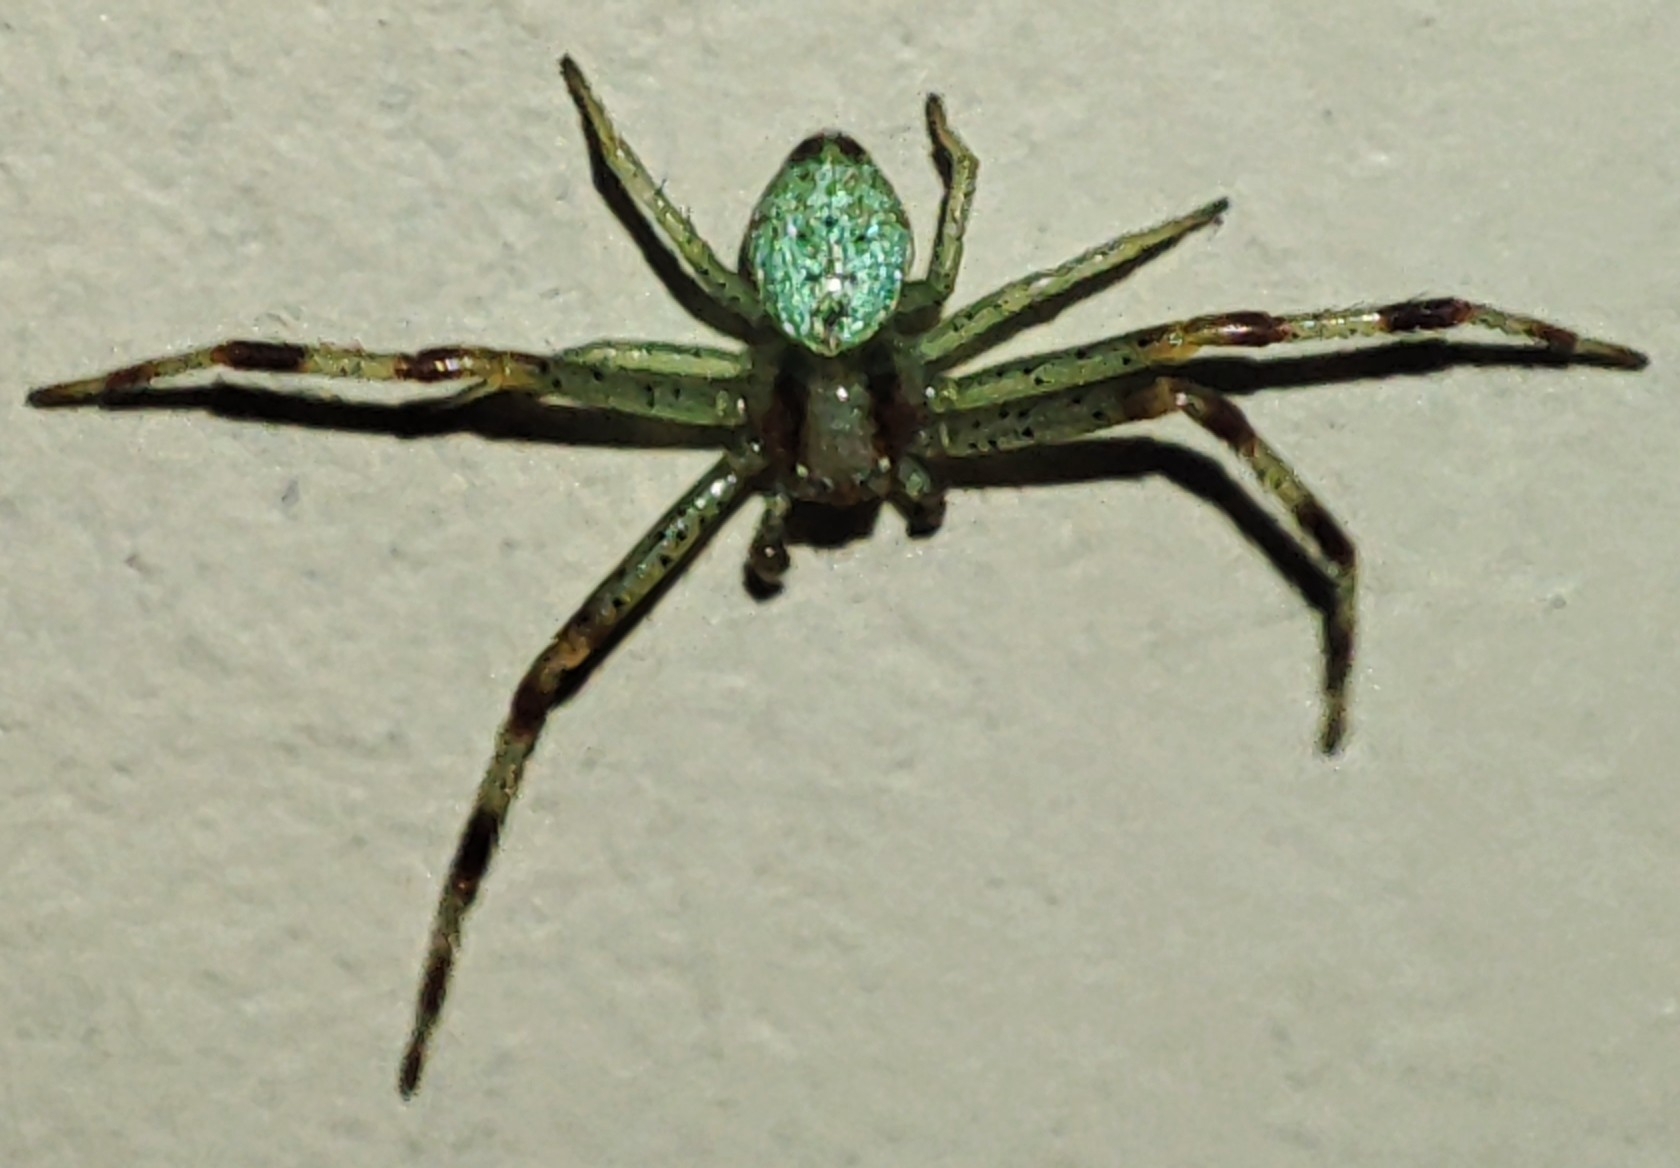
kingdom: Animalia
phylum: Arthropoda
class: Arachnida
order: Araneae
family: Thomisidae
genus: Ebrechtella
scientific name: Ebrechtella tricuspidata
